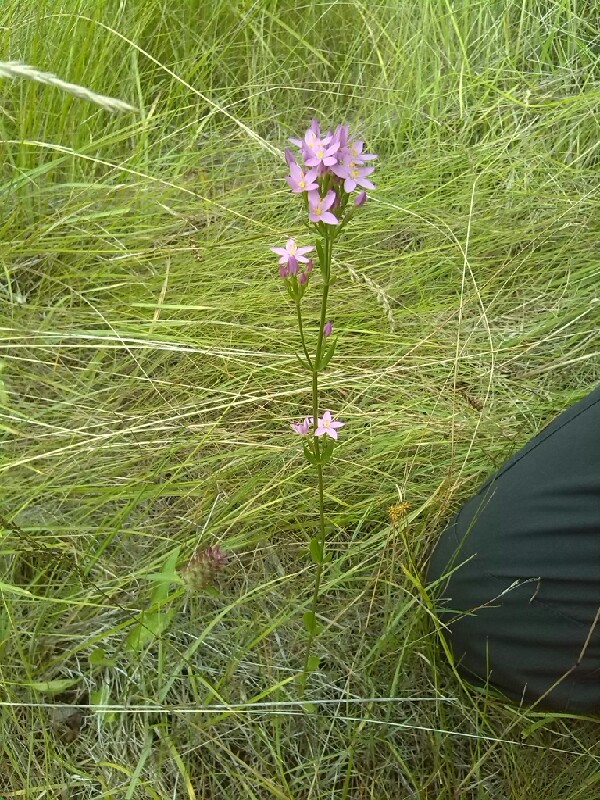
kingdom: Plantae
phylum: Tracheophyta
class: Magnoliopsida
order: Gentianales
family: Gentianaceae
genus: Centaurium
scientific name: Centaurium erythraea
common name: Common centaury
